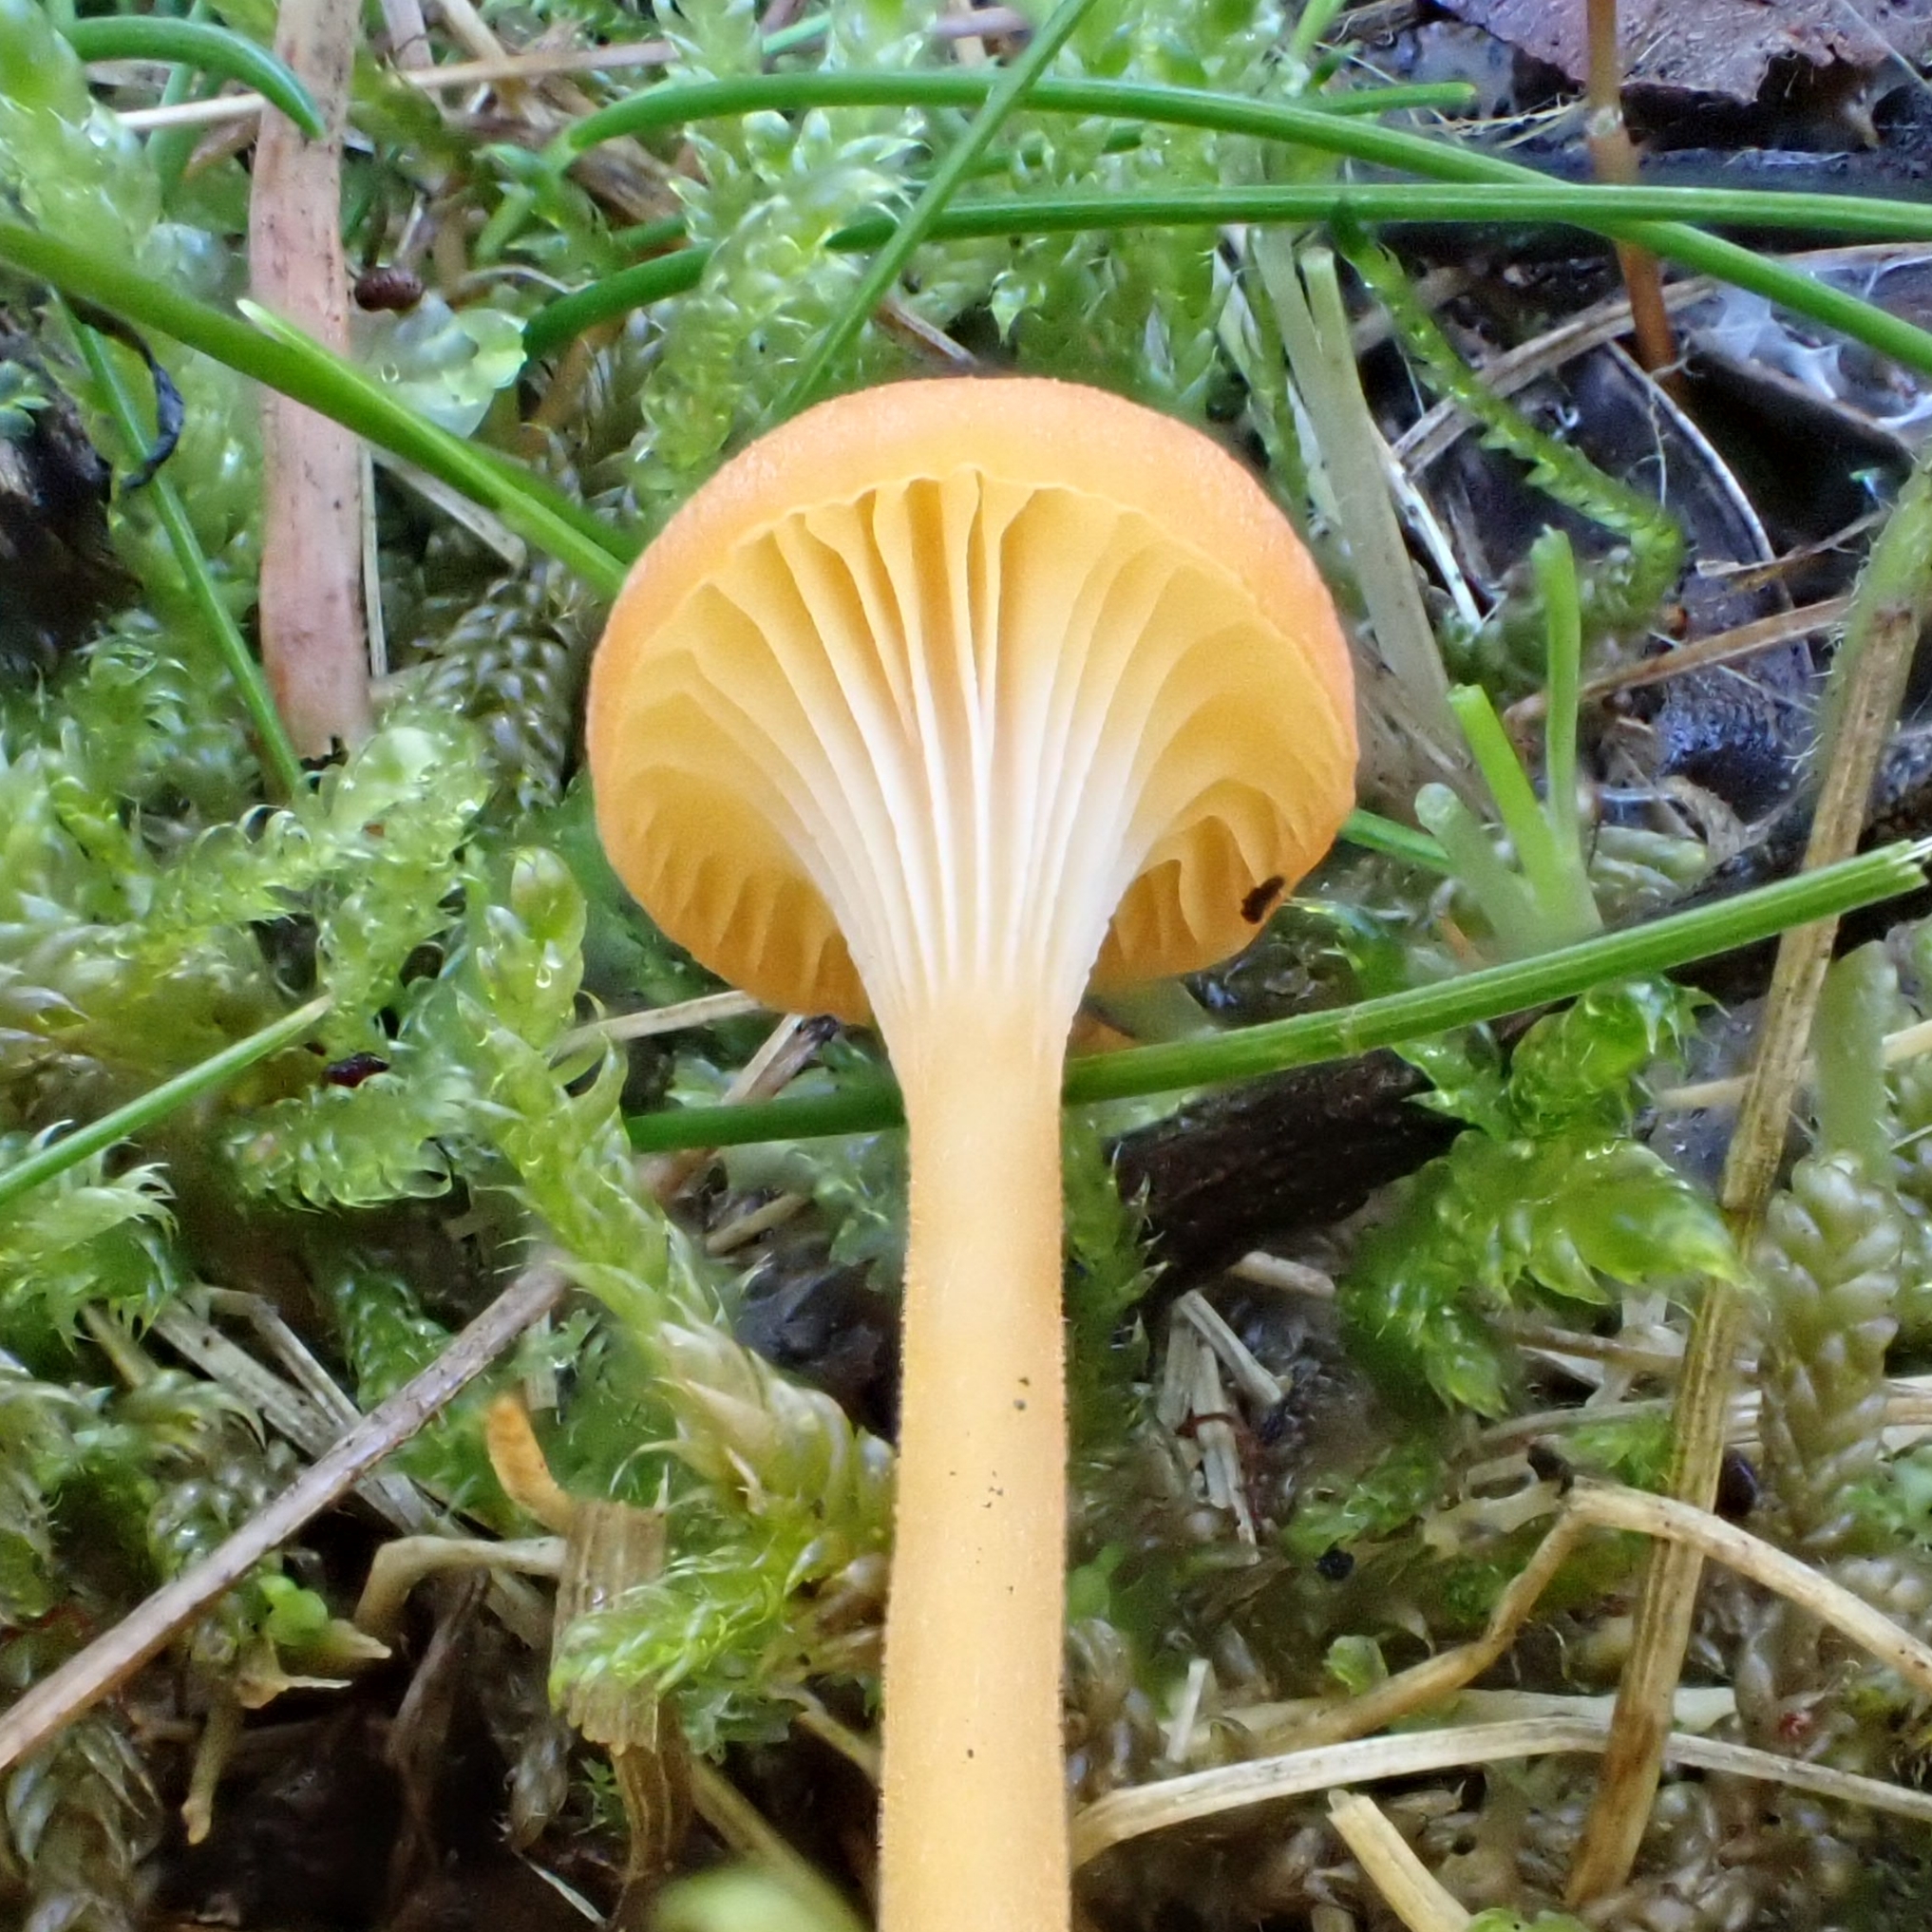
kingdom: Fungi
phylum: Basidiomycota
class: Agaricomycetes
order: Hymenochaetales
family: Rickenellaceae
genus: Rickenella
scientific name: Rickenella fibula
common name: Orange mosscap
